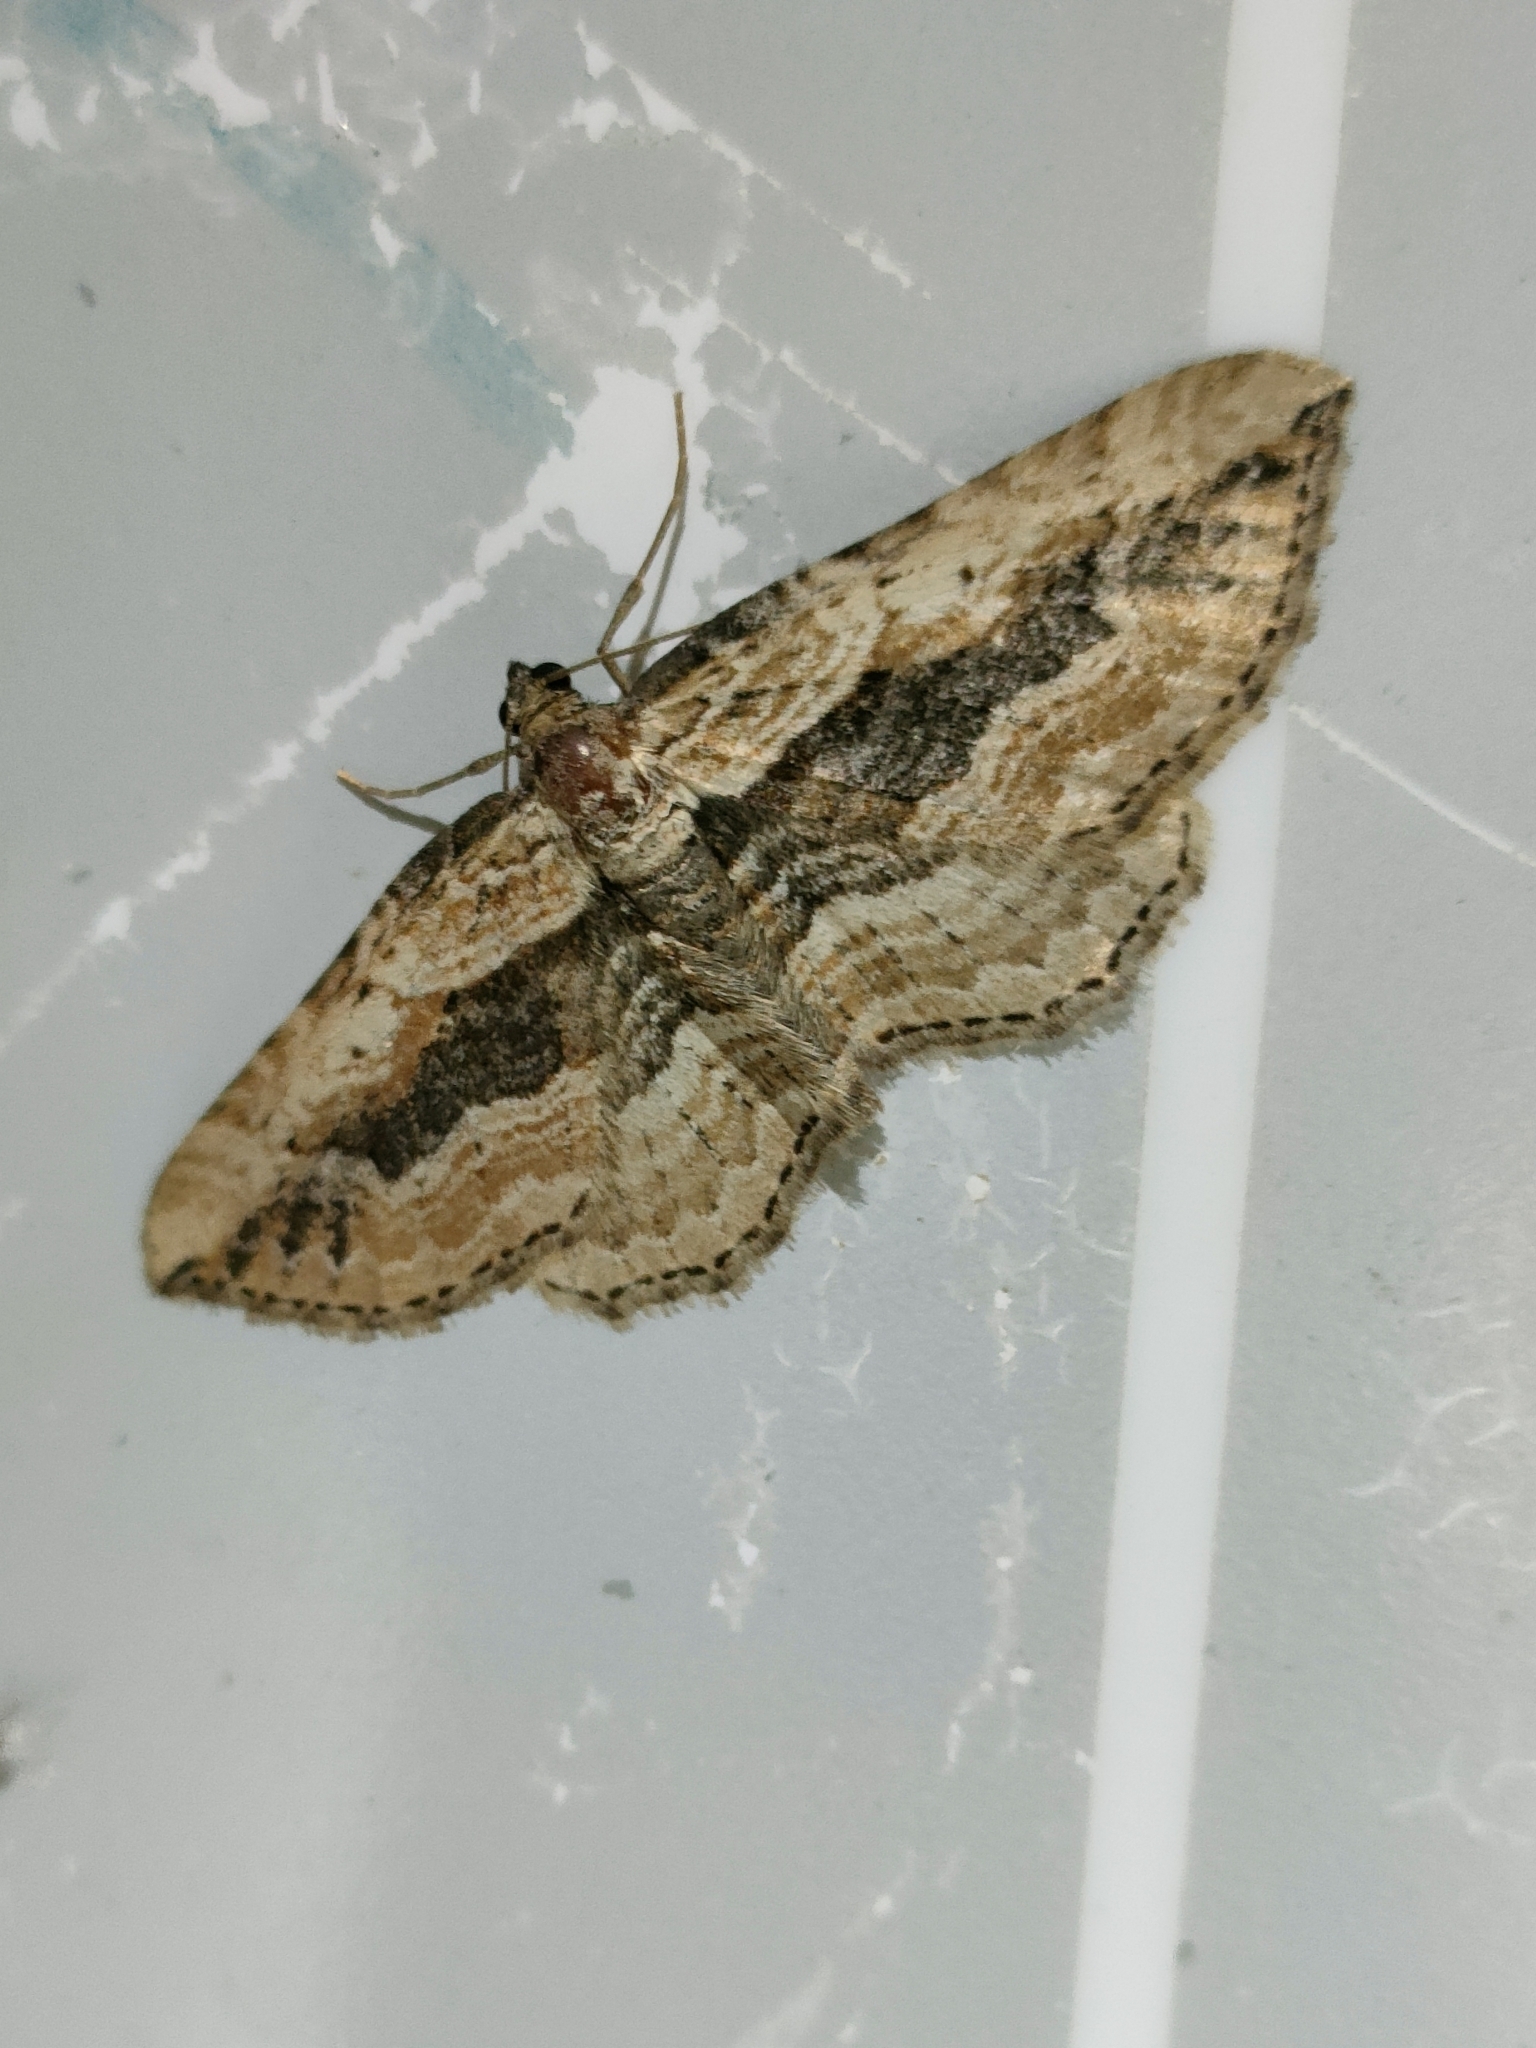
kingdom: Animalia
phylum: Arthropoda
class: Insecta
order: Lepidoptera
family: Geometridae
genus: Horisme
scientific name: Horisme vitalbata
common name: Small waved umber
